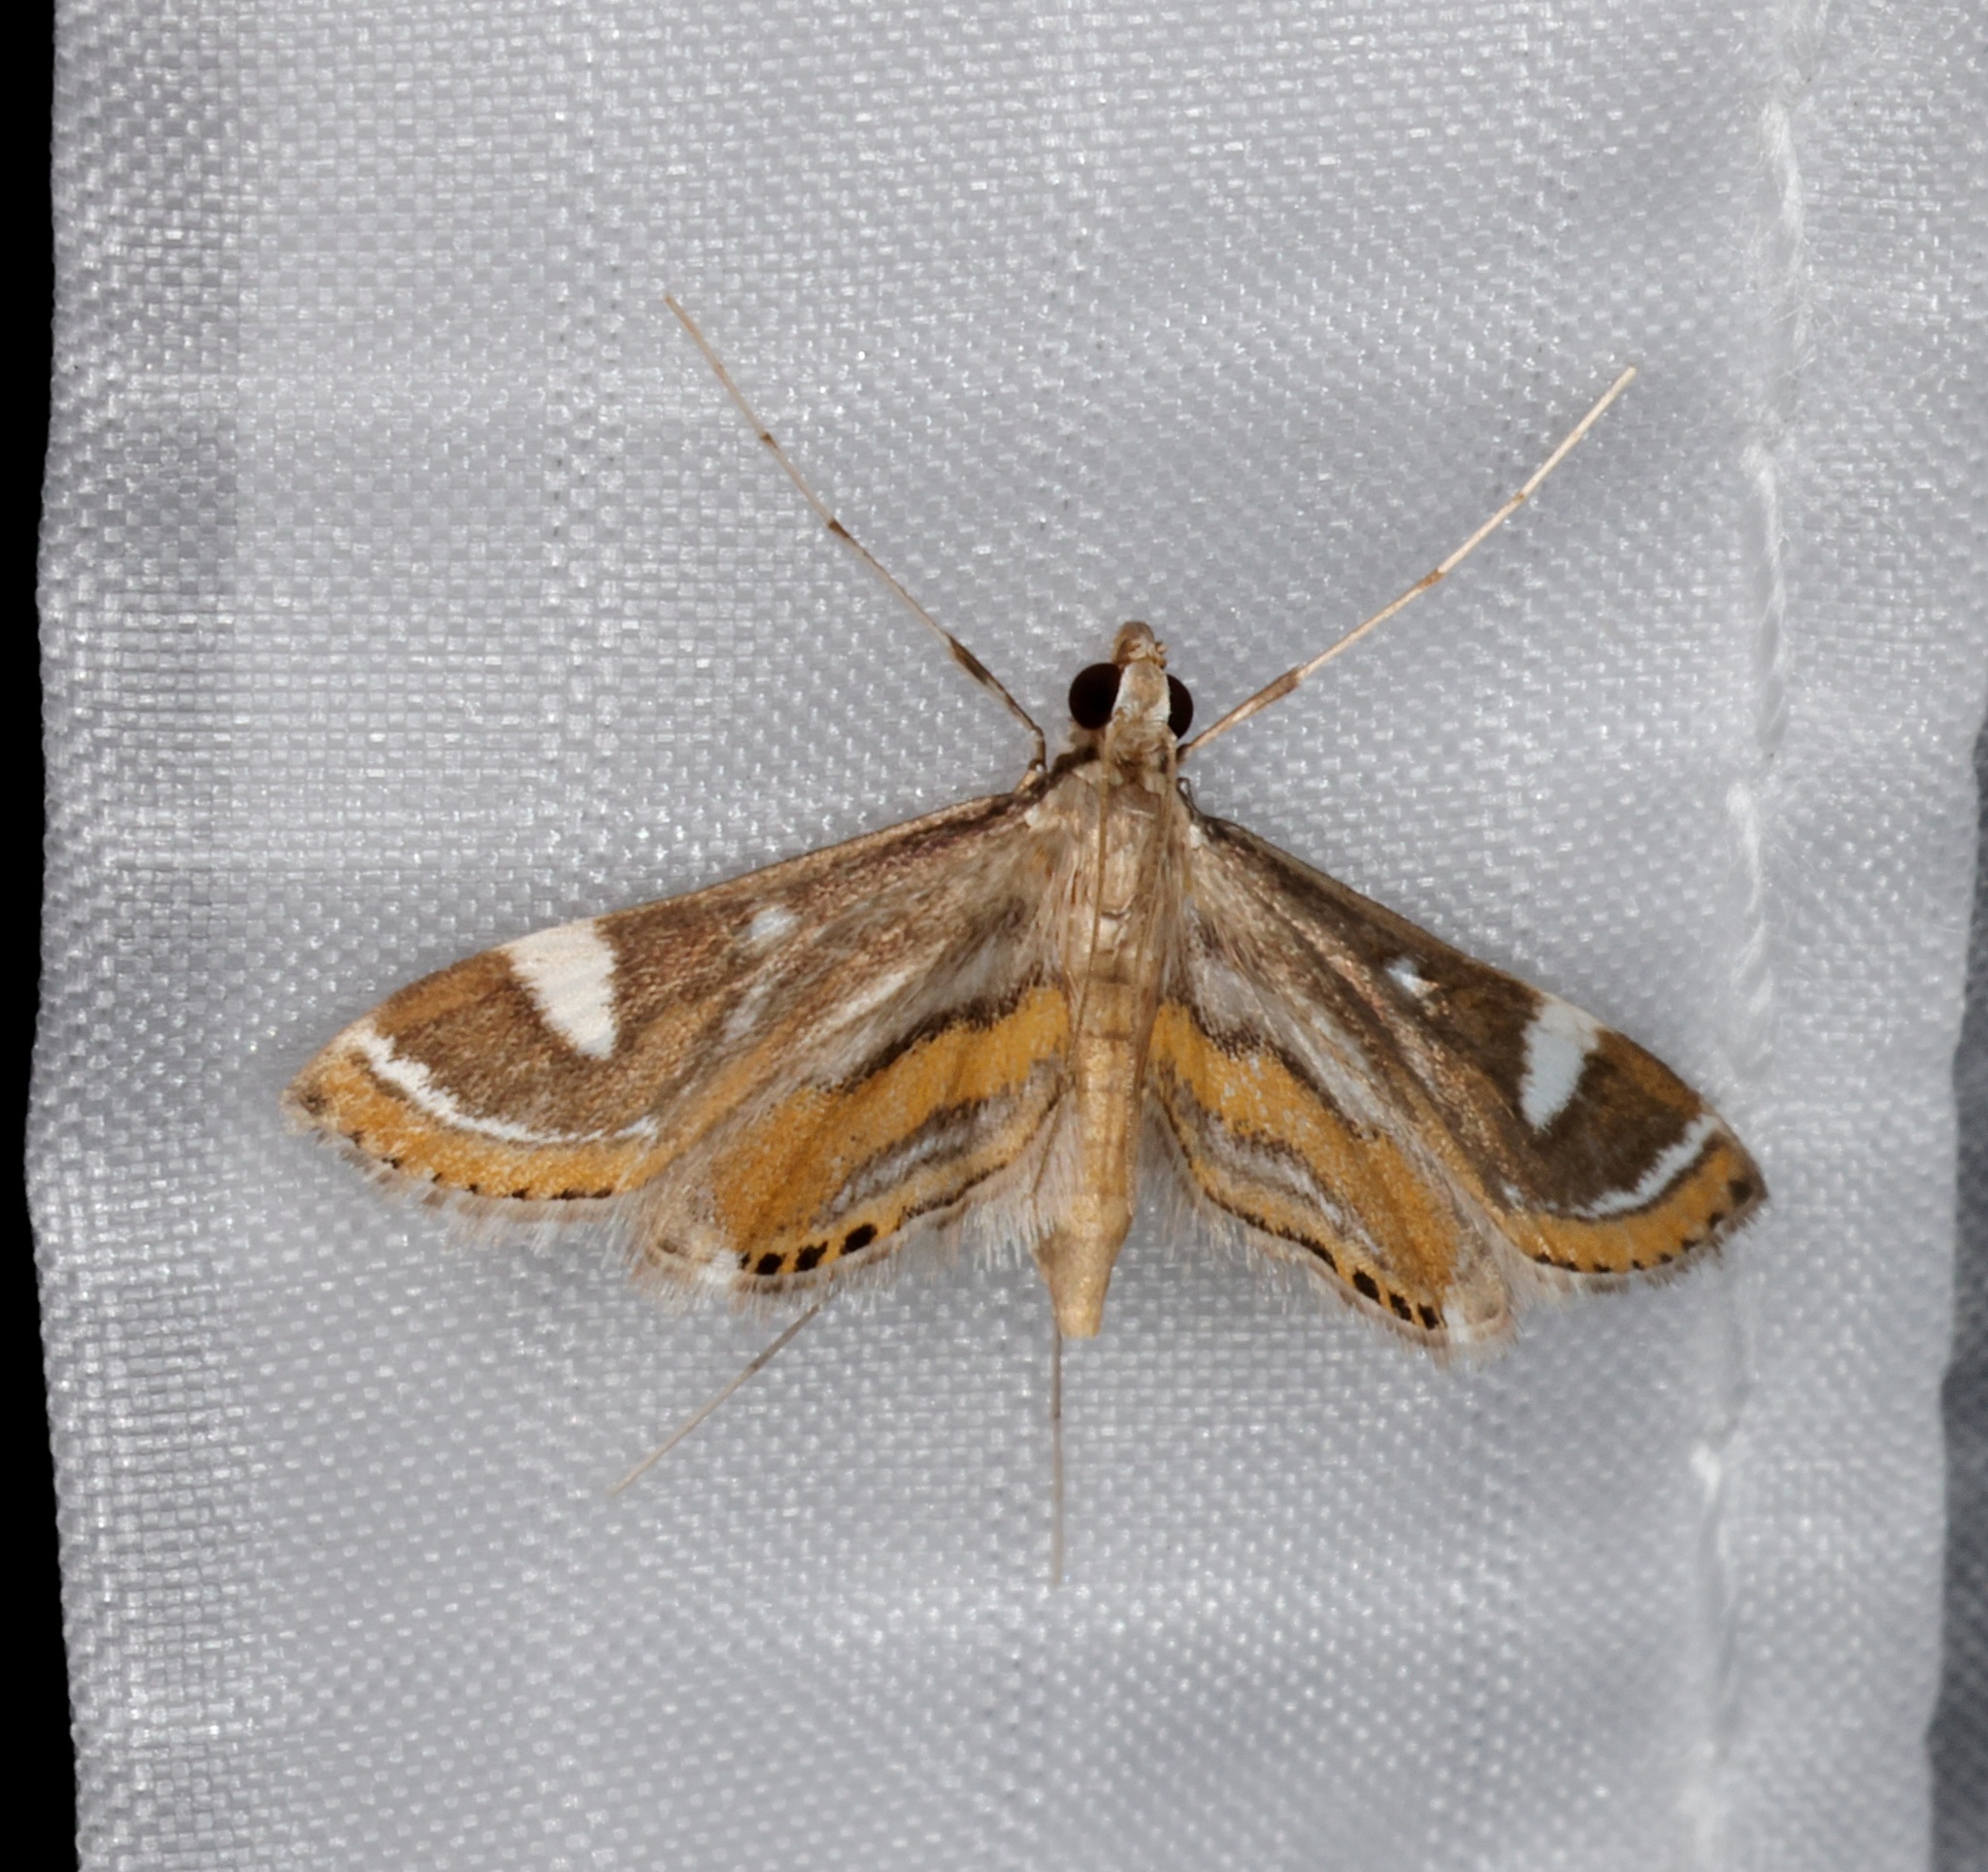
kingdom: Animalia
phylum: Arthropoda
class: Insecta
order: Lepidoptera
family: Crambidae
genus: Strepsinoma
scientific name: Strepsinoma croesusalis
